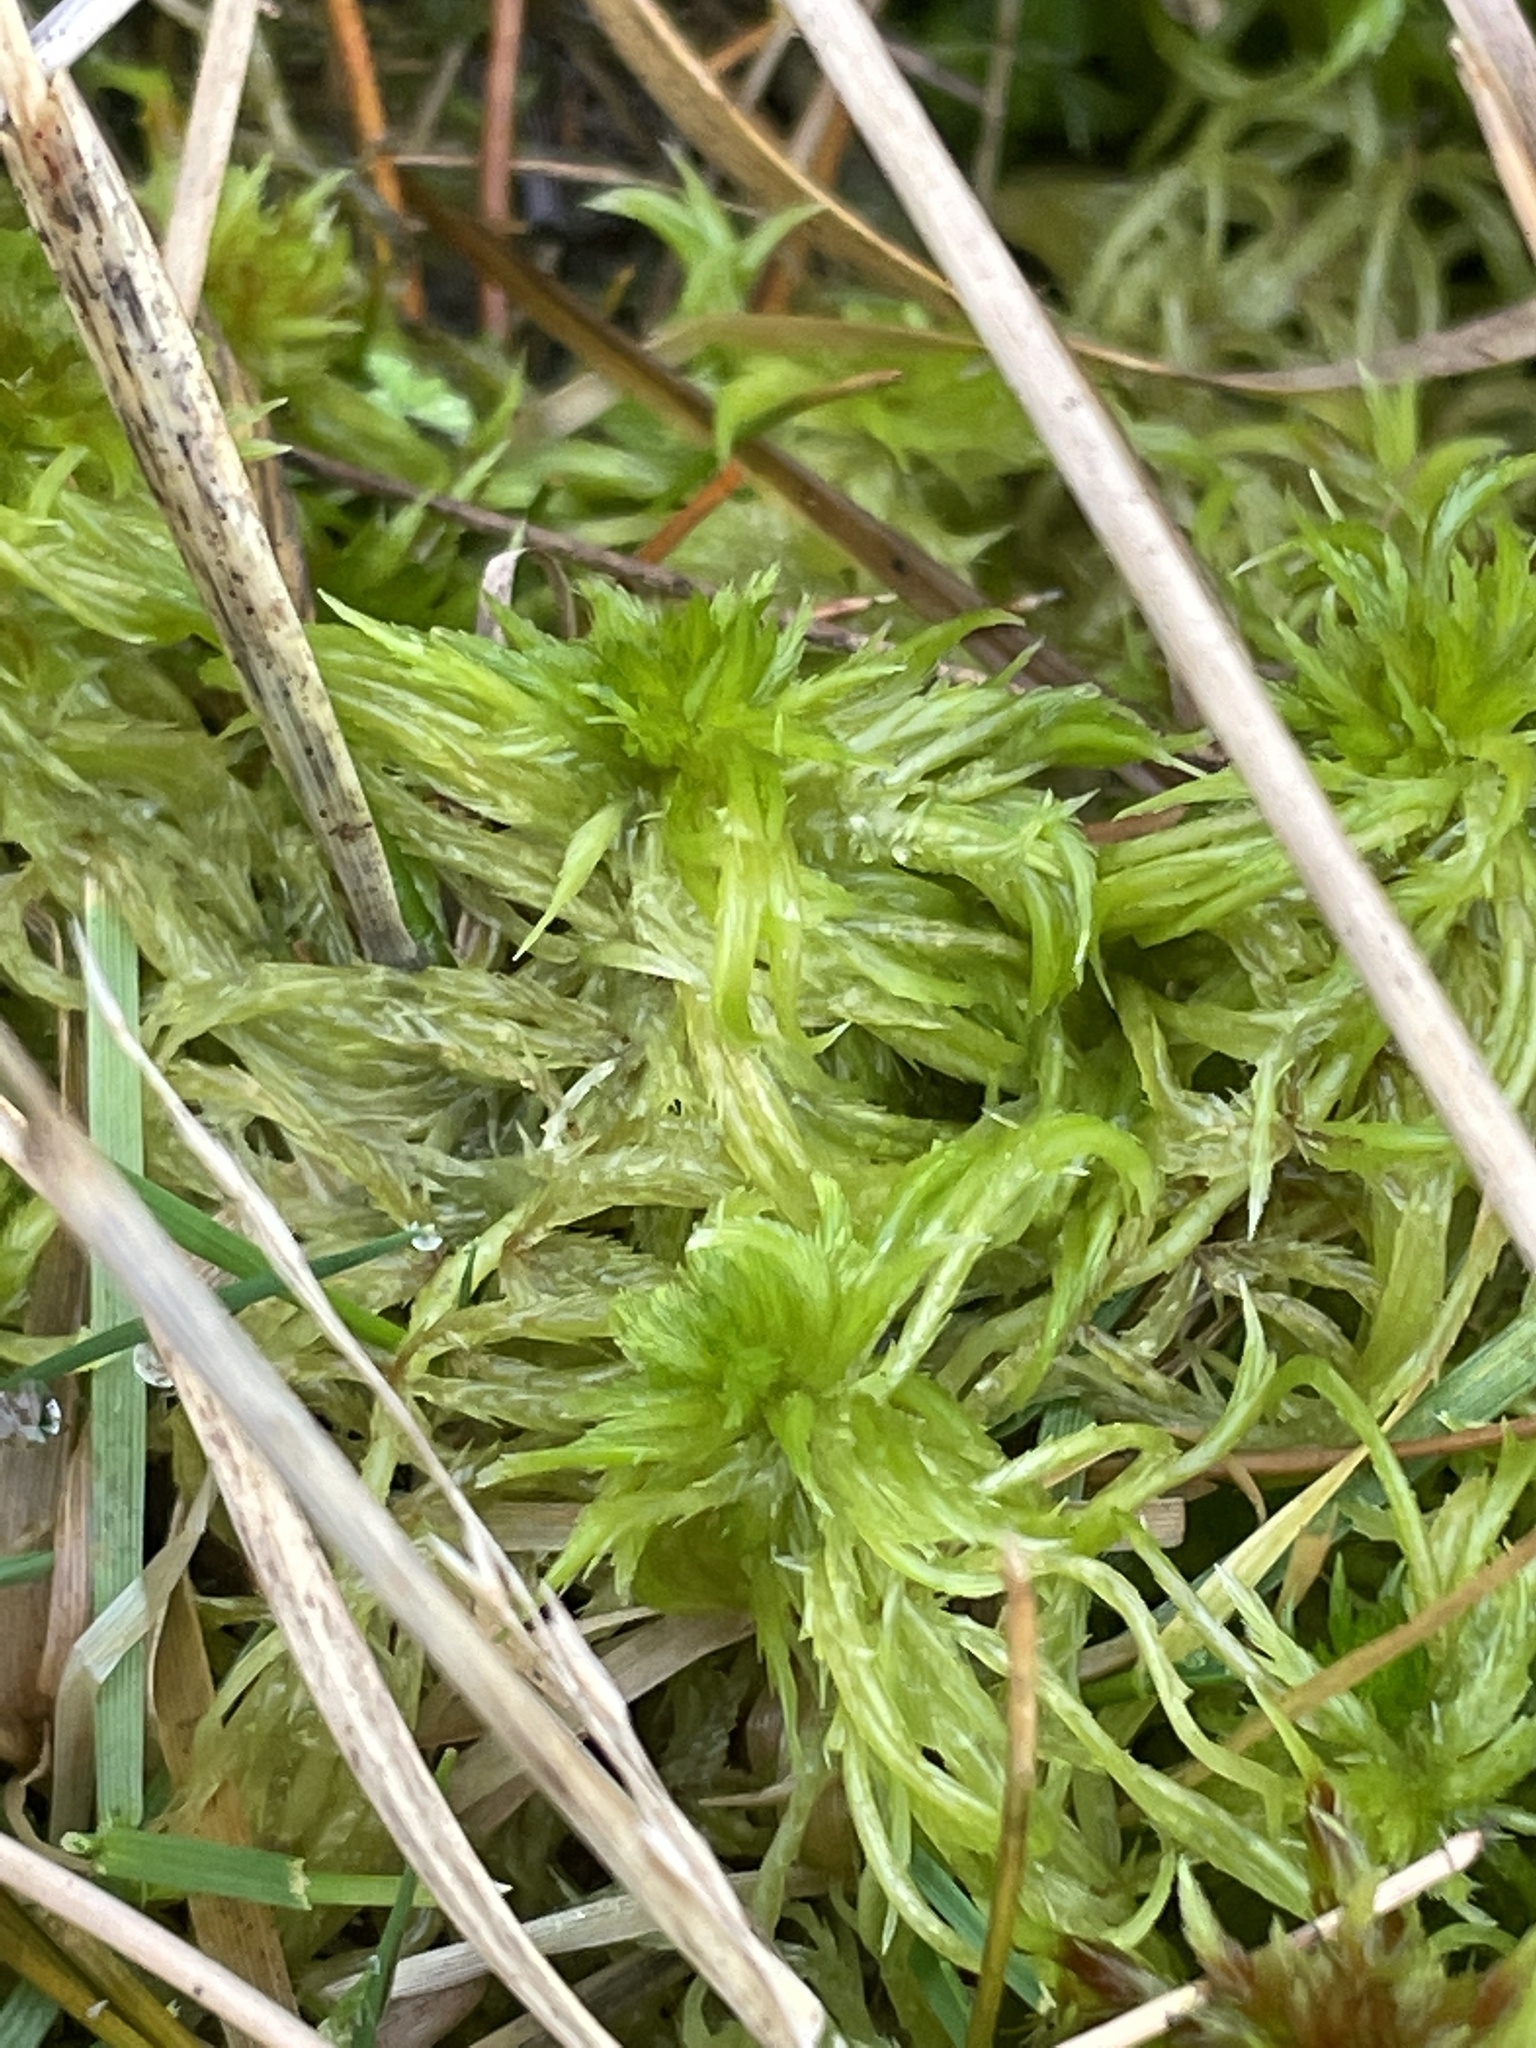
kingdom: Plantae
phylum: Bryophyta
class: Sphagnopsida
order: Sphagnales
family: Sphagnaceae
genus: Sphagnum
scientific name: Sphagnum cuspidatum
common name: Feathery peat moss
